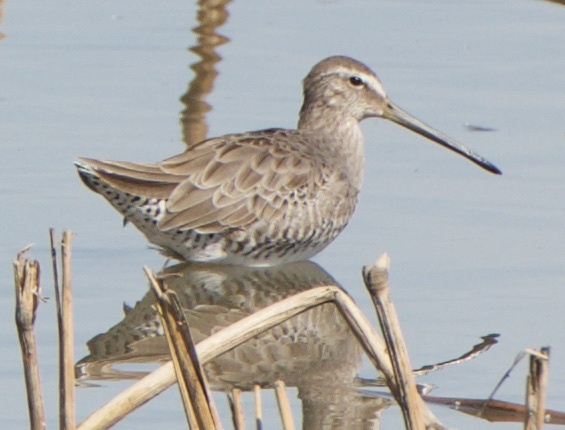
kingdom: Animalia
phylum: Chordata
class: Aves
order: Charadriiformes
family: Scolopacidae
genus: Limnodromus
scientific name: Limnodromus scolopaceus
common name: Long-billed dowitcher
